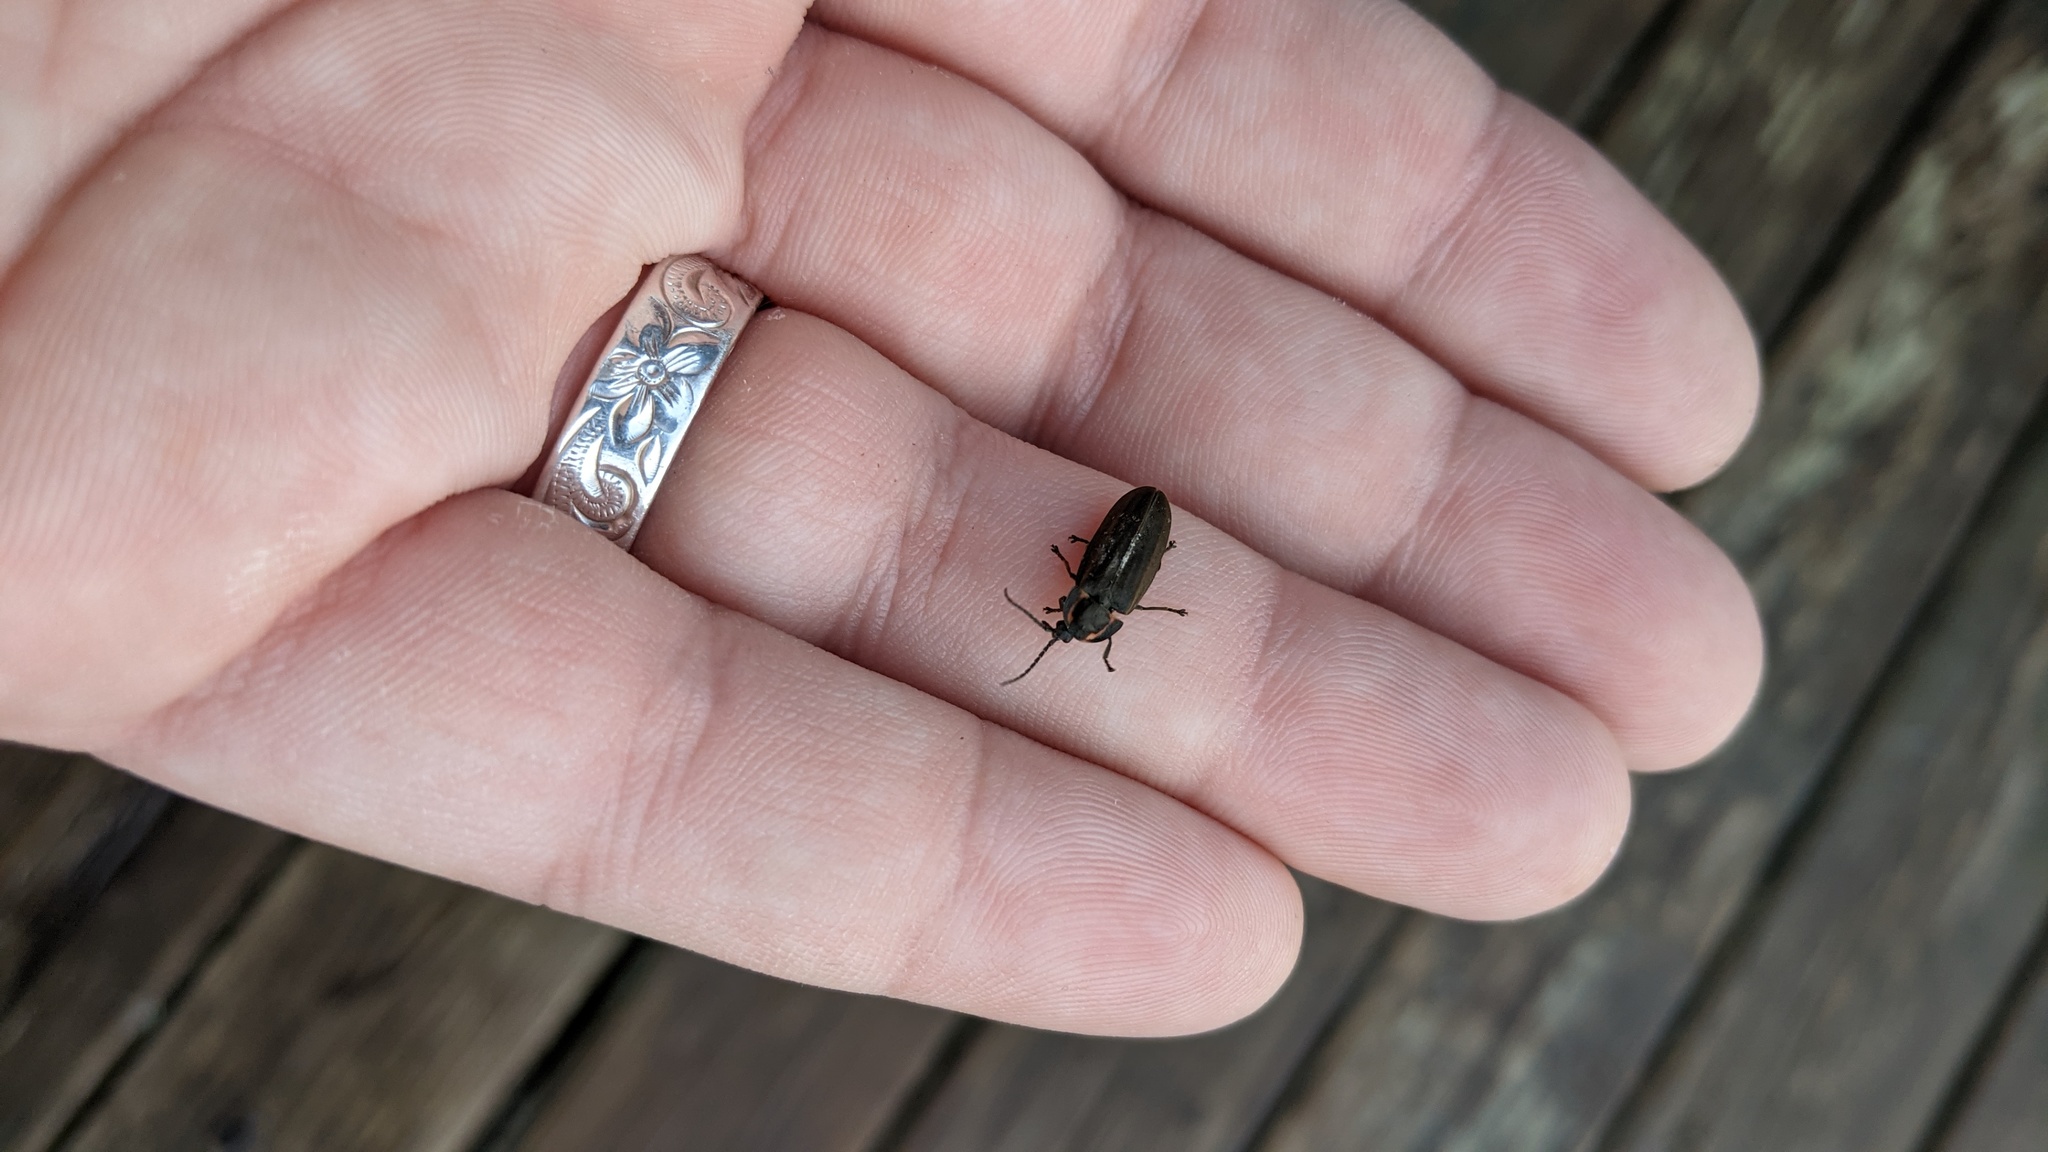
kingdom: Animalia
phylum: Arthropoda
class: Insecta
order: Coleoptera
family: Lampyridae
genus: Photinus
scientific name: Photinus corrusca
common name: Winter firefly
